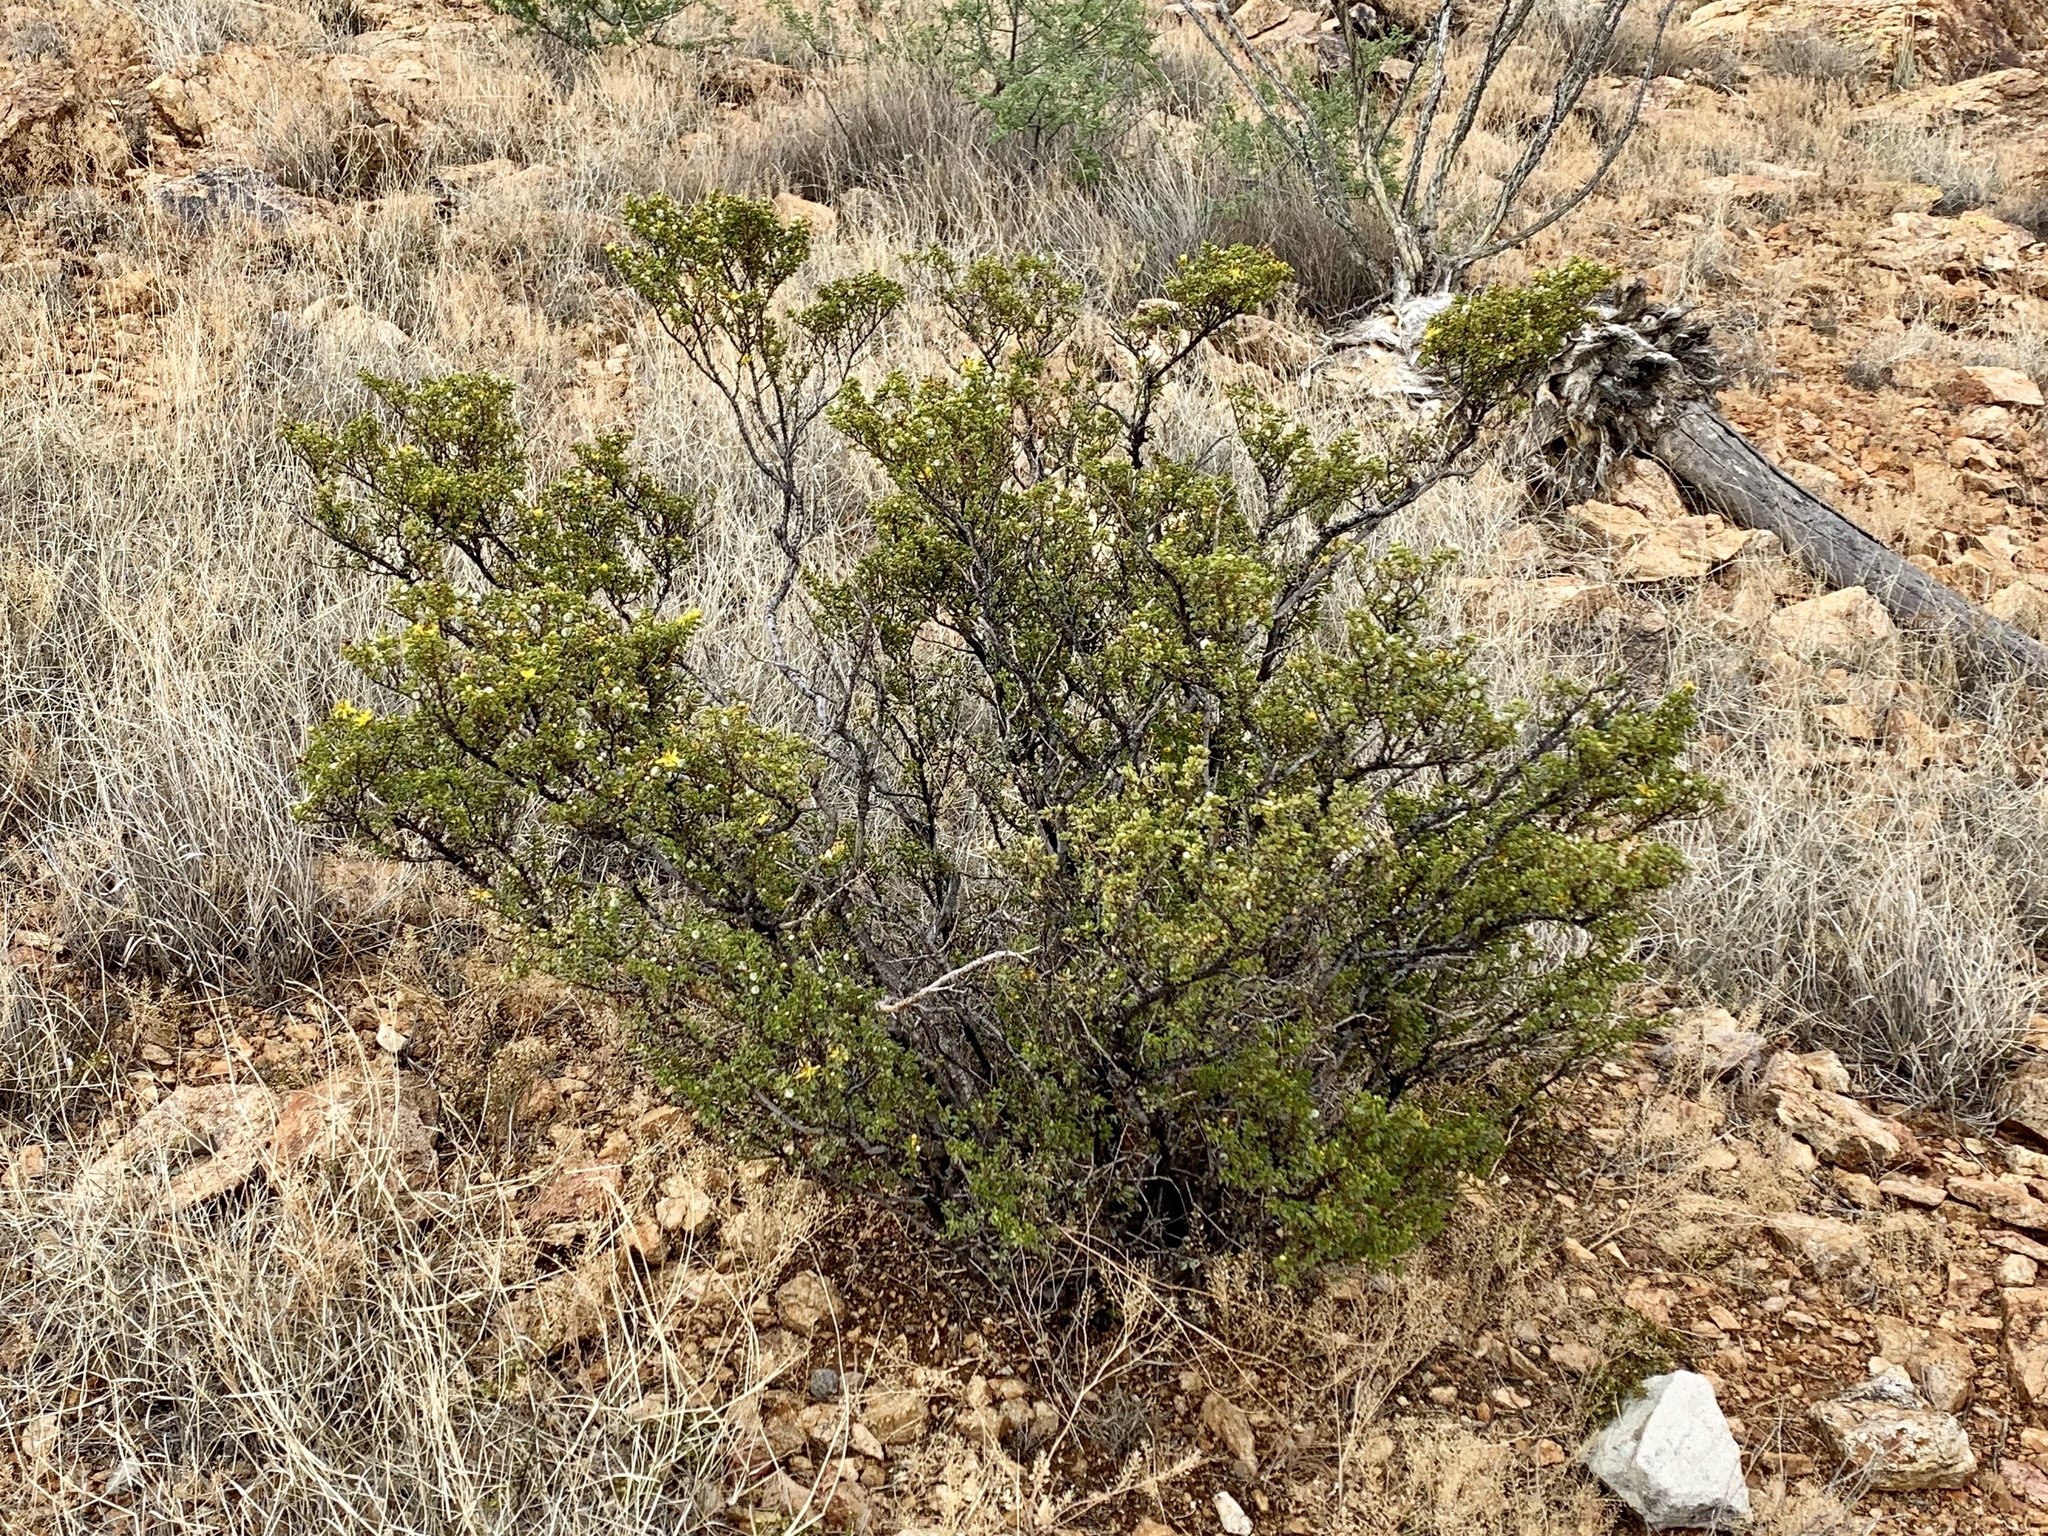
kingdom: Plantae
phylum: Tracheophyta
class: Magnoliopsida
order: Zygophyllales
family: Zygophyllaceae
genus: Larrea
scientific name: Larrea tridentata
